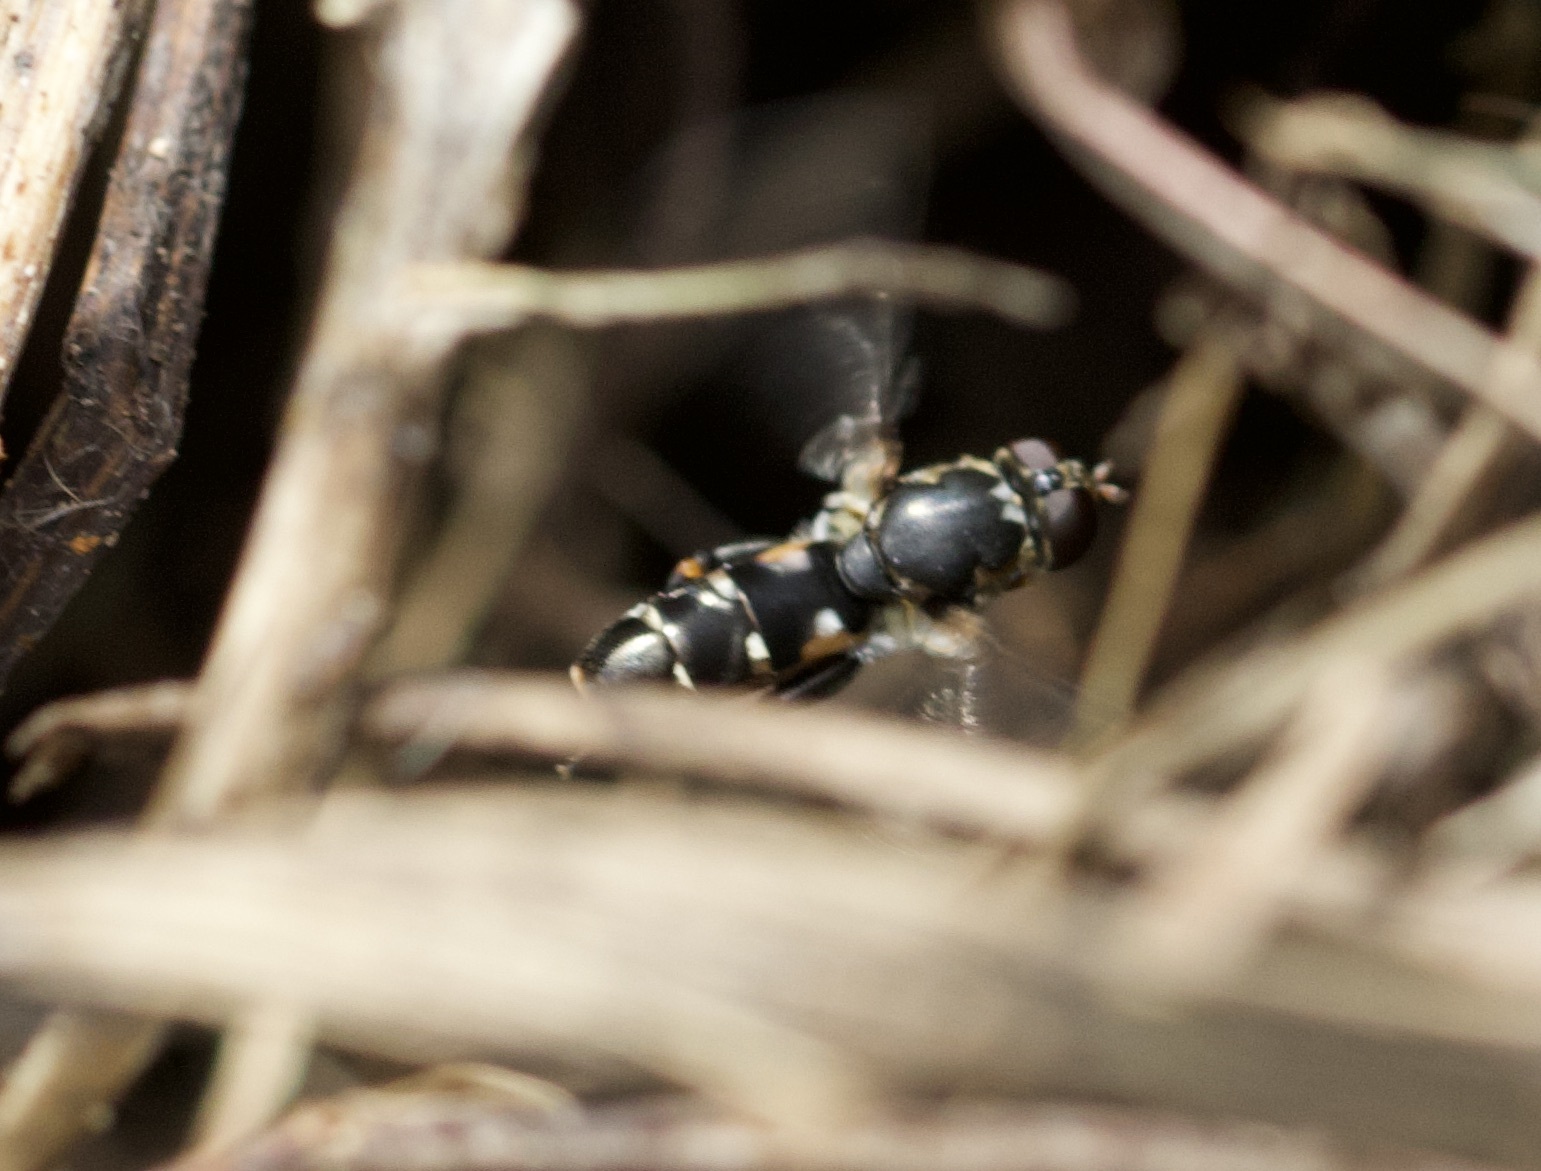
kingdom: Animalia
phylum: Arthropoda
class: Insecta
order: Diptera
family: Syrphidae
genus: Syritta
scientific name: Syritta pipiens
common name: Hover fly
